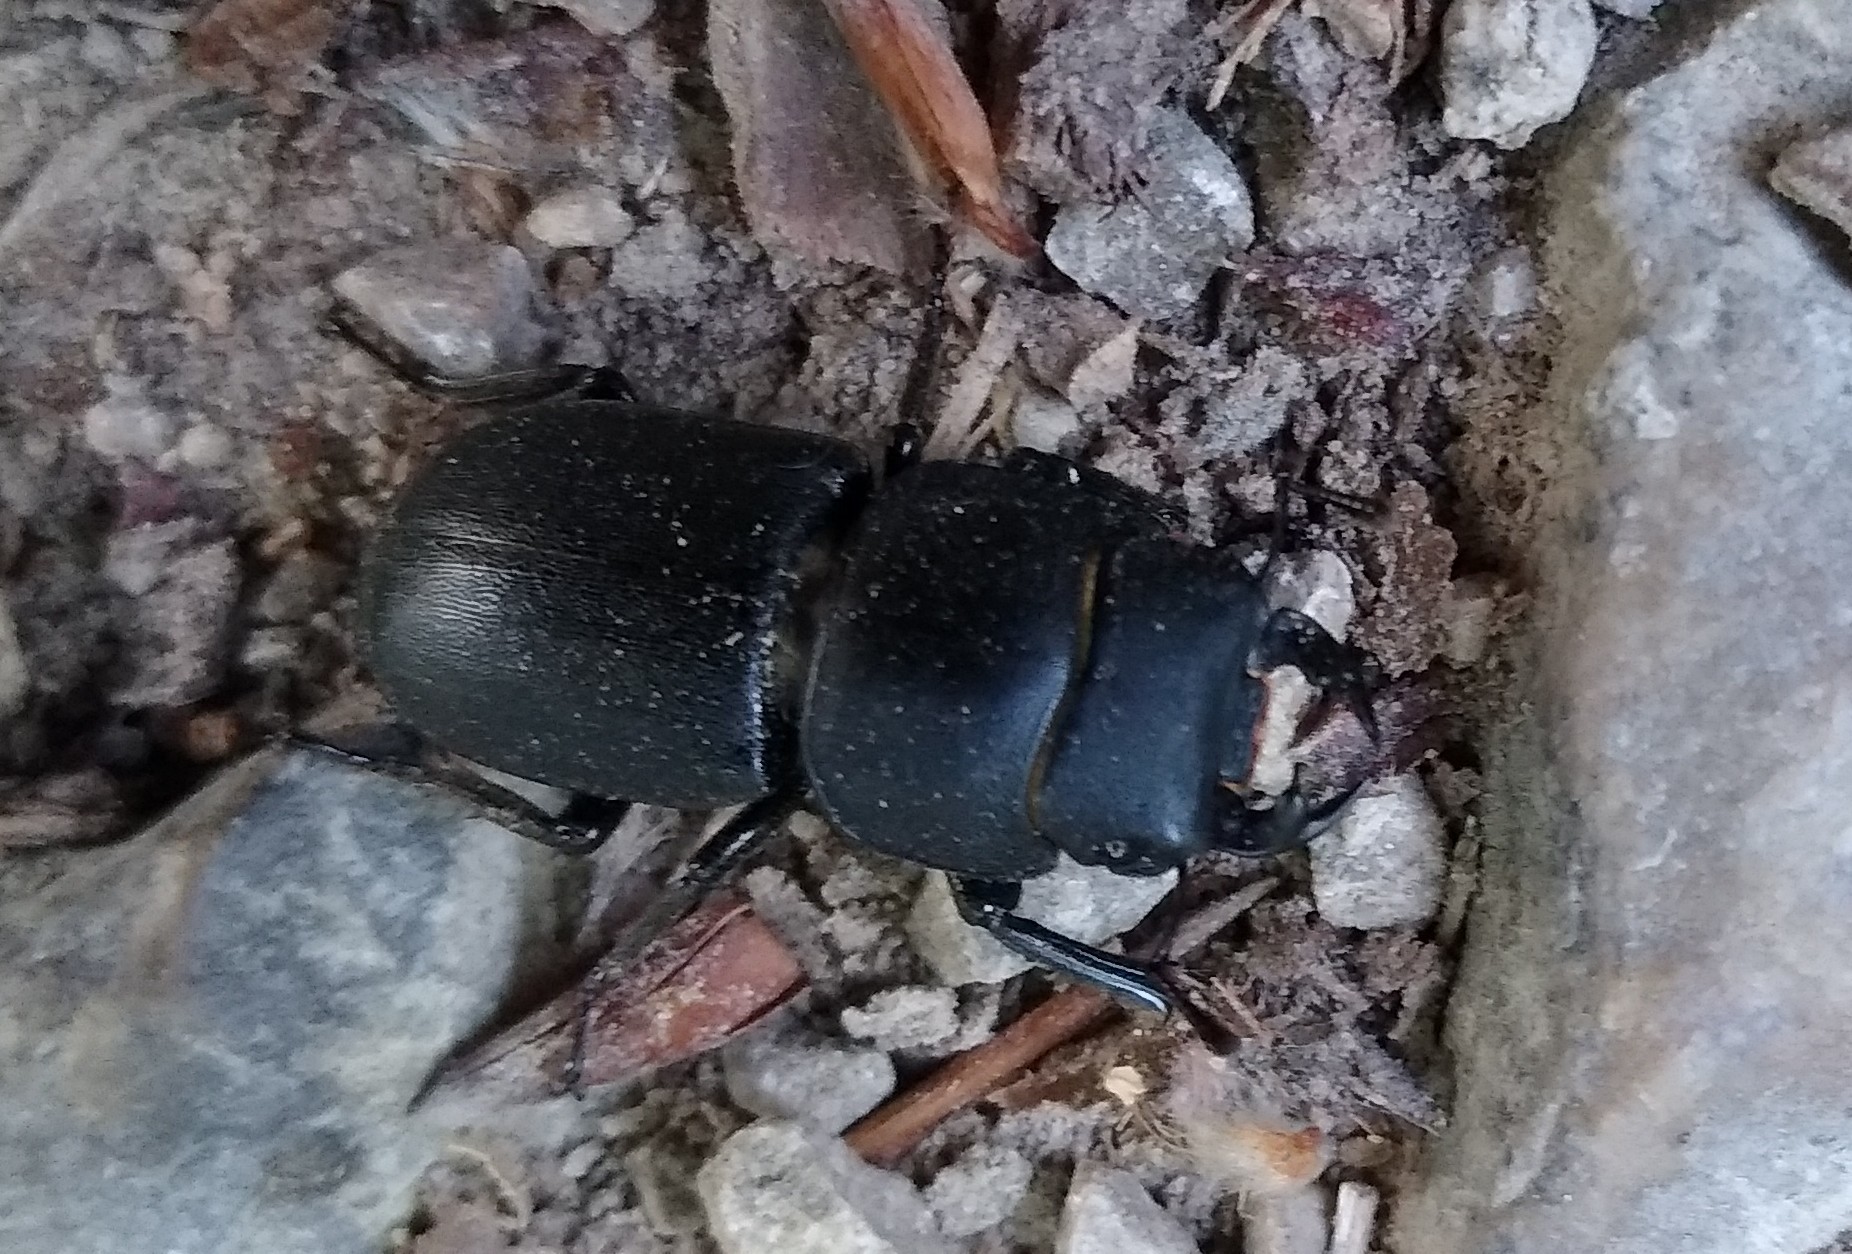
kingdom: Animalia
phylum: Arthropoda
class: Insecta
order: Coleoptera
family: Lucanidae
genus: Dorcus
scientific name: Dorcus parallelipipedus
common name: Lesser stag beetle
